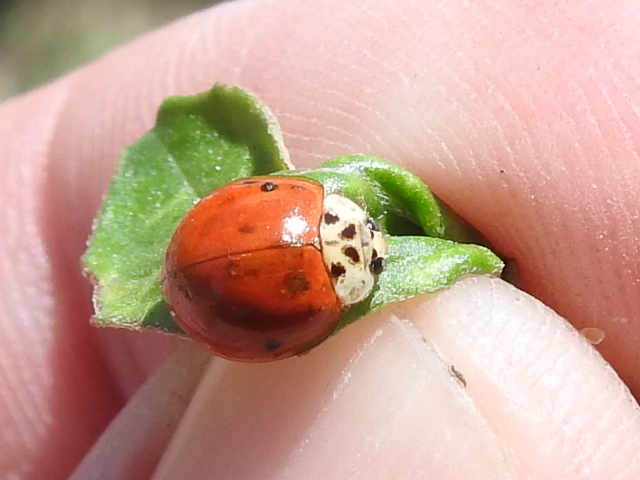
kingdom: Animalia
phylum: Arthropoda
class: Insecta
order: Coleoptera
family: Coccinellidae
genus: Harmonia
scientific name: Harmonia axyridis
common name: Harlequin ladybird
